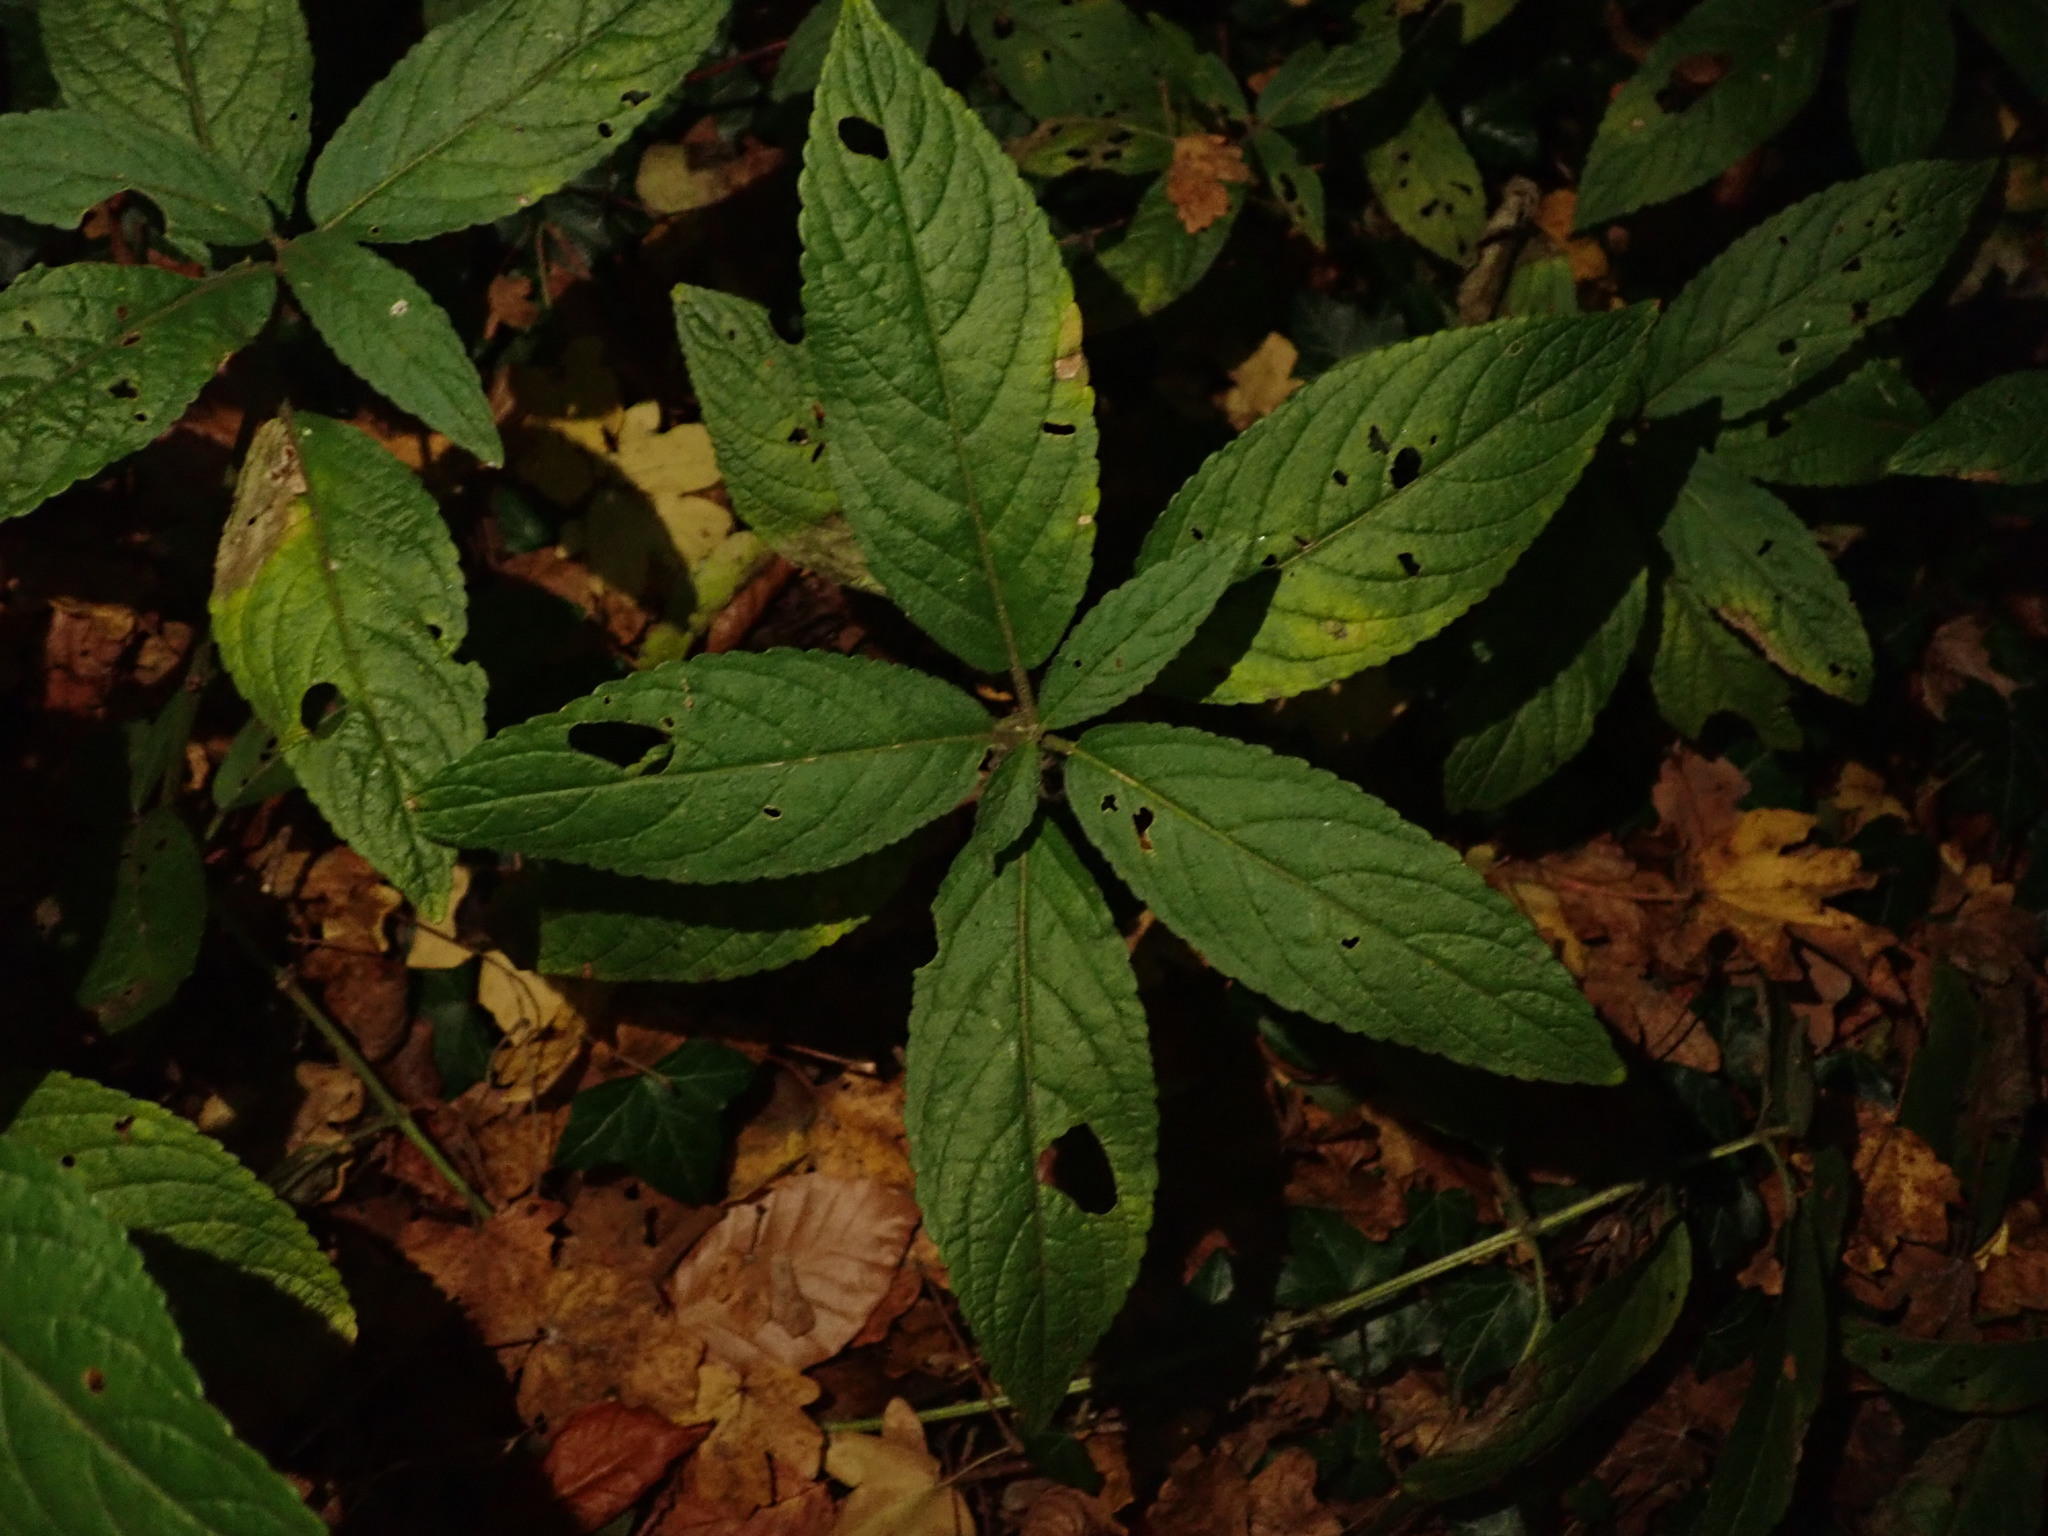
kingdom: Plantae
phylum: Tracheophyta
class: Magnoliopsida
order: Malpighiales
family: Euphorbiaceae
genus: Mercurialis
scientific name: Mercurialis perennis
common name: Dog mercury
